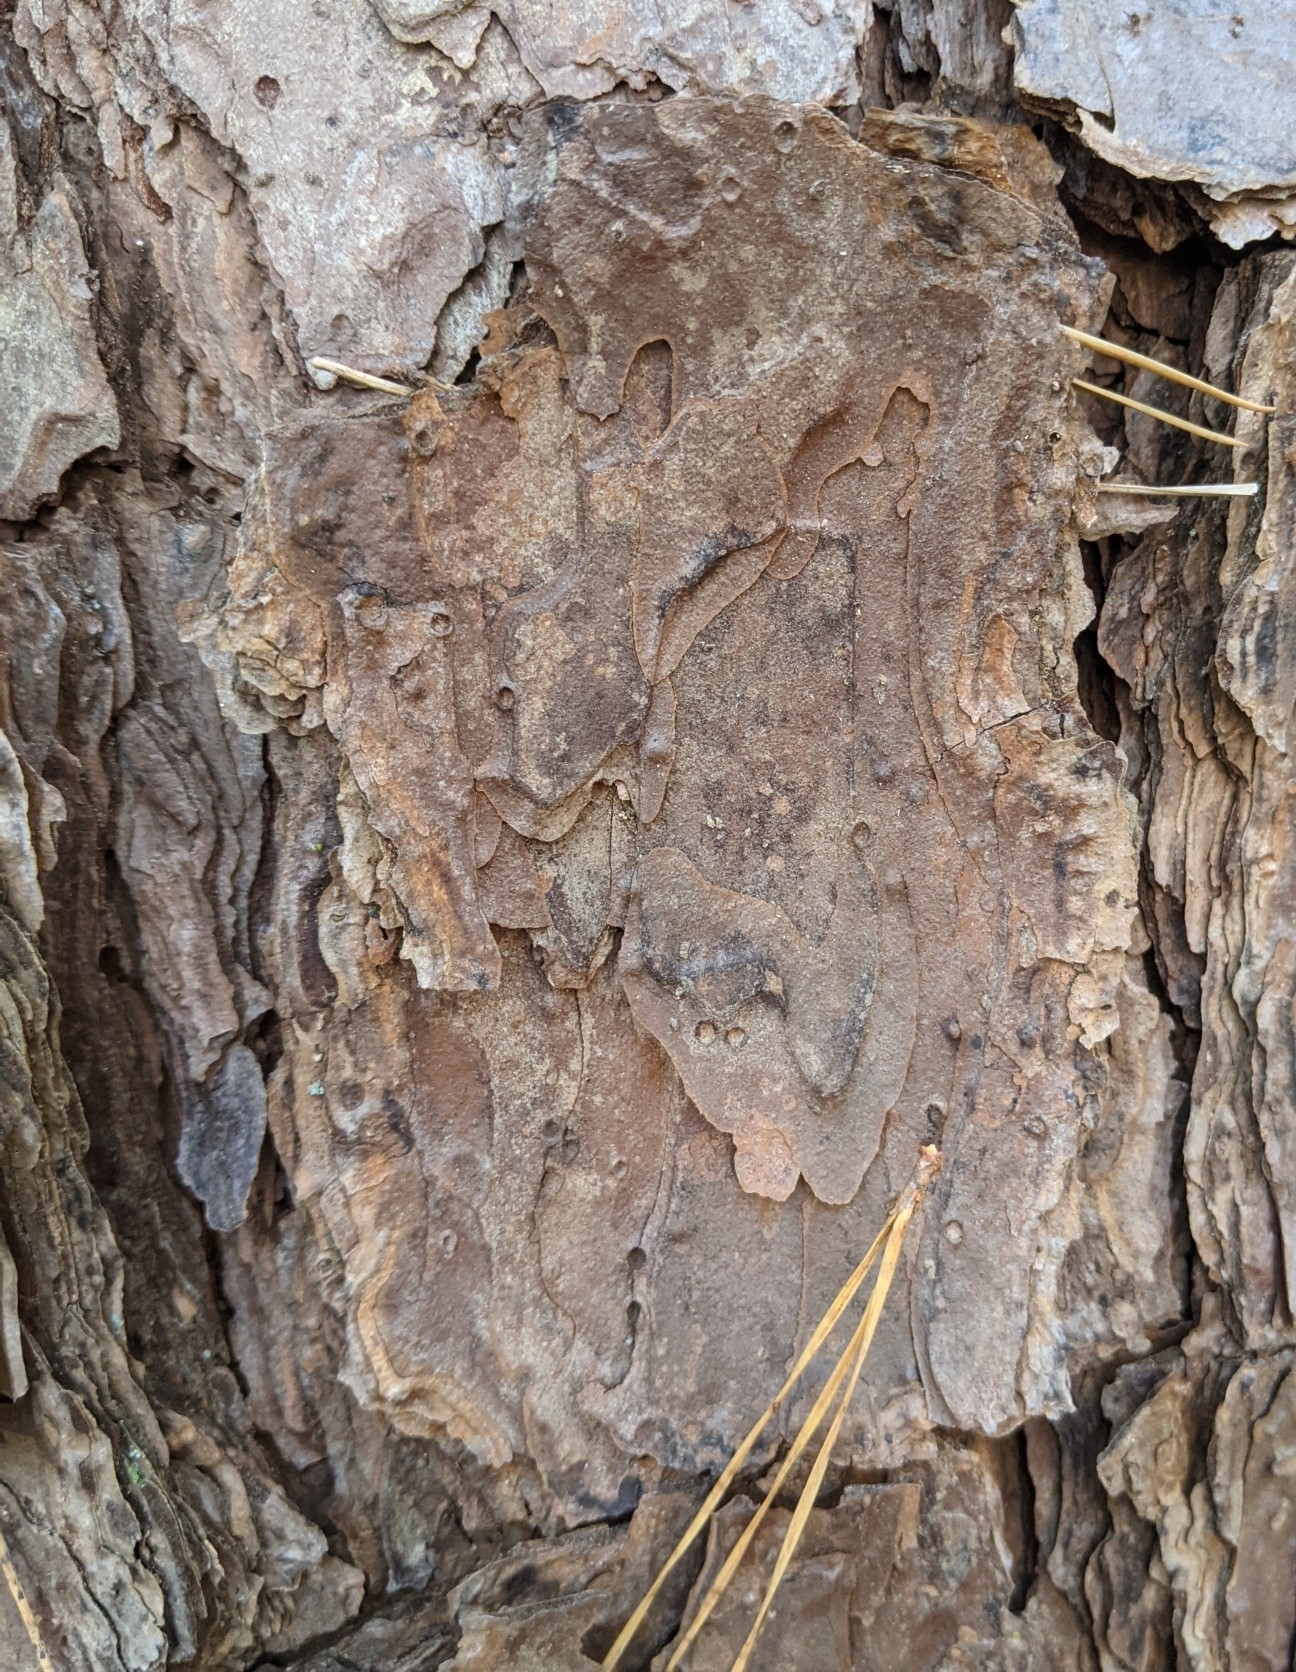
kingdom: Plantae
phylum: Tracheophyta
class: Pinopsida
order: Pinales
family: Pinaceae
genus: Pinus
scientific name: Pinus echinata
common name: Shortleaf pine
